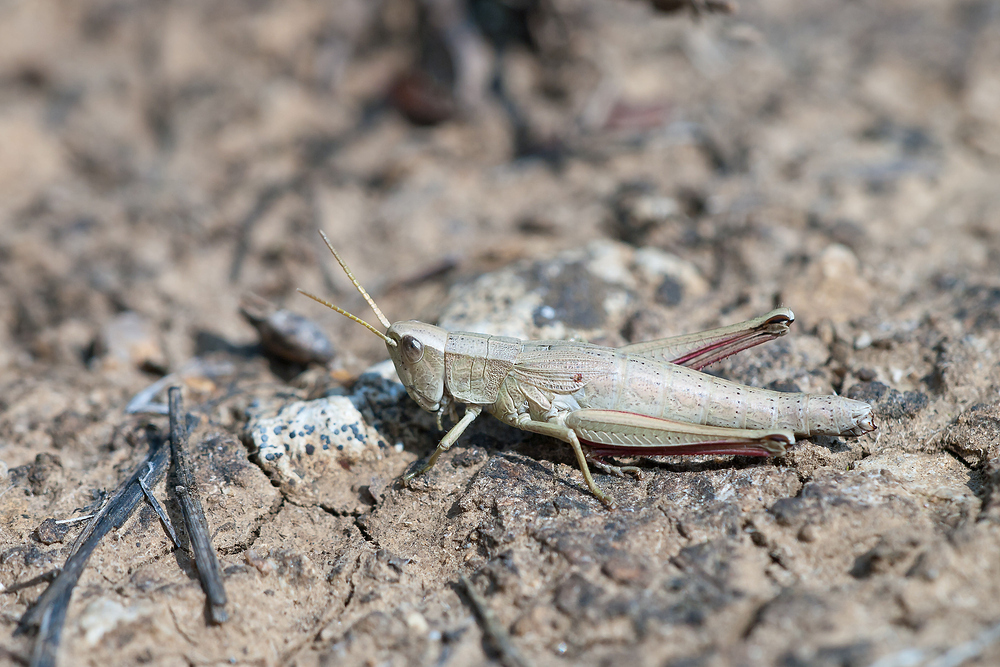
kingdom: Animalia
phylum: Arthropoda
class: Insecta
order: Orthoptera
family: Acrididae
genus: Chrysochraon
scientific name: Chrysochraon dispar
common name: Large gold grasshopper
